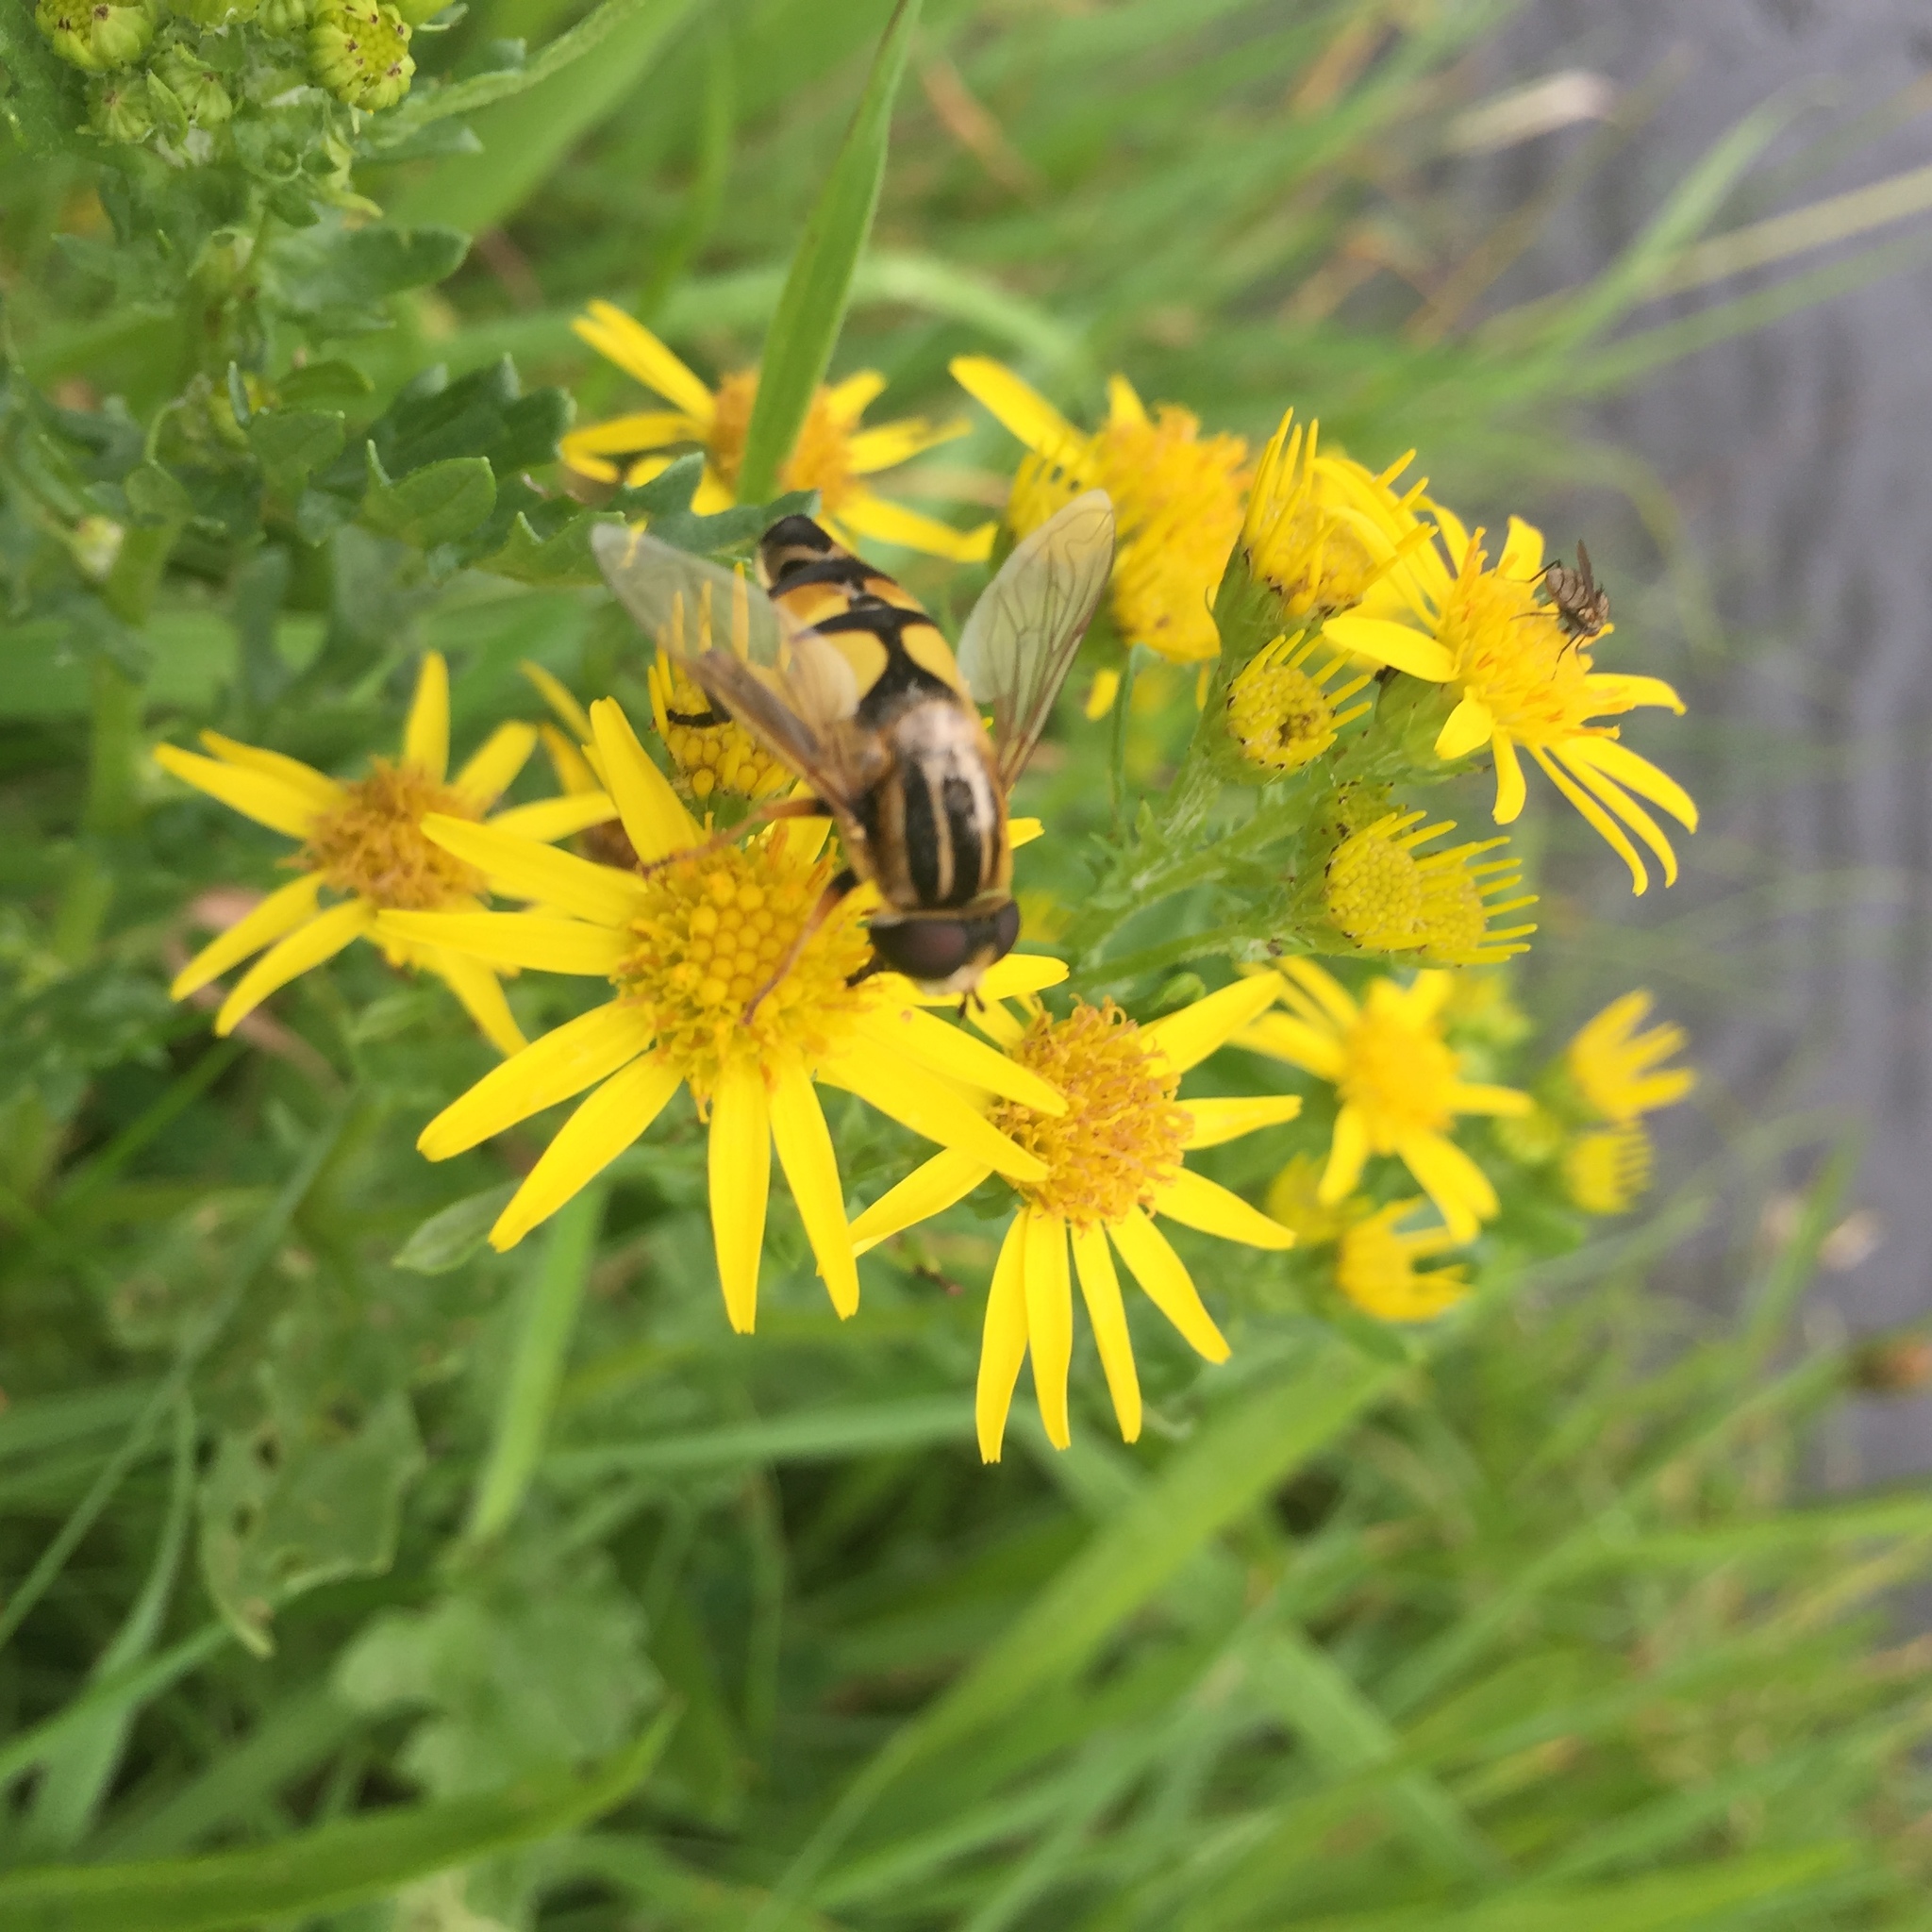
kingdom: Animalia
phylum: Arthropoda
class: Insecta
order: Diptera
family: Syrphidae
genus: Helophilus
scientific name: Helophilus trivittatus
